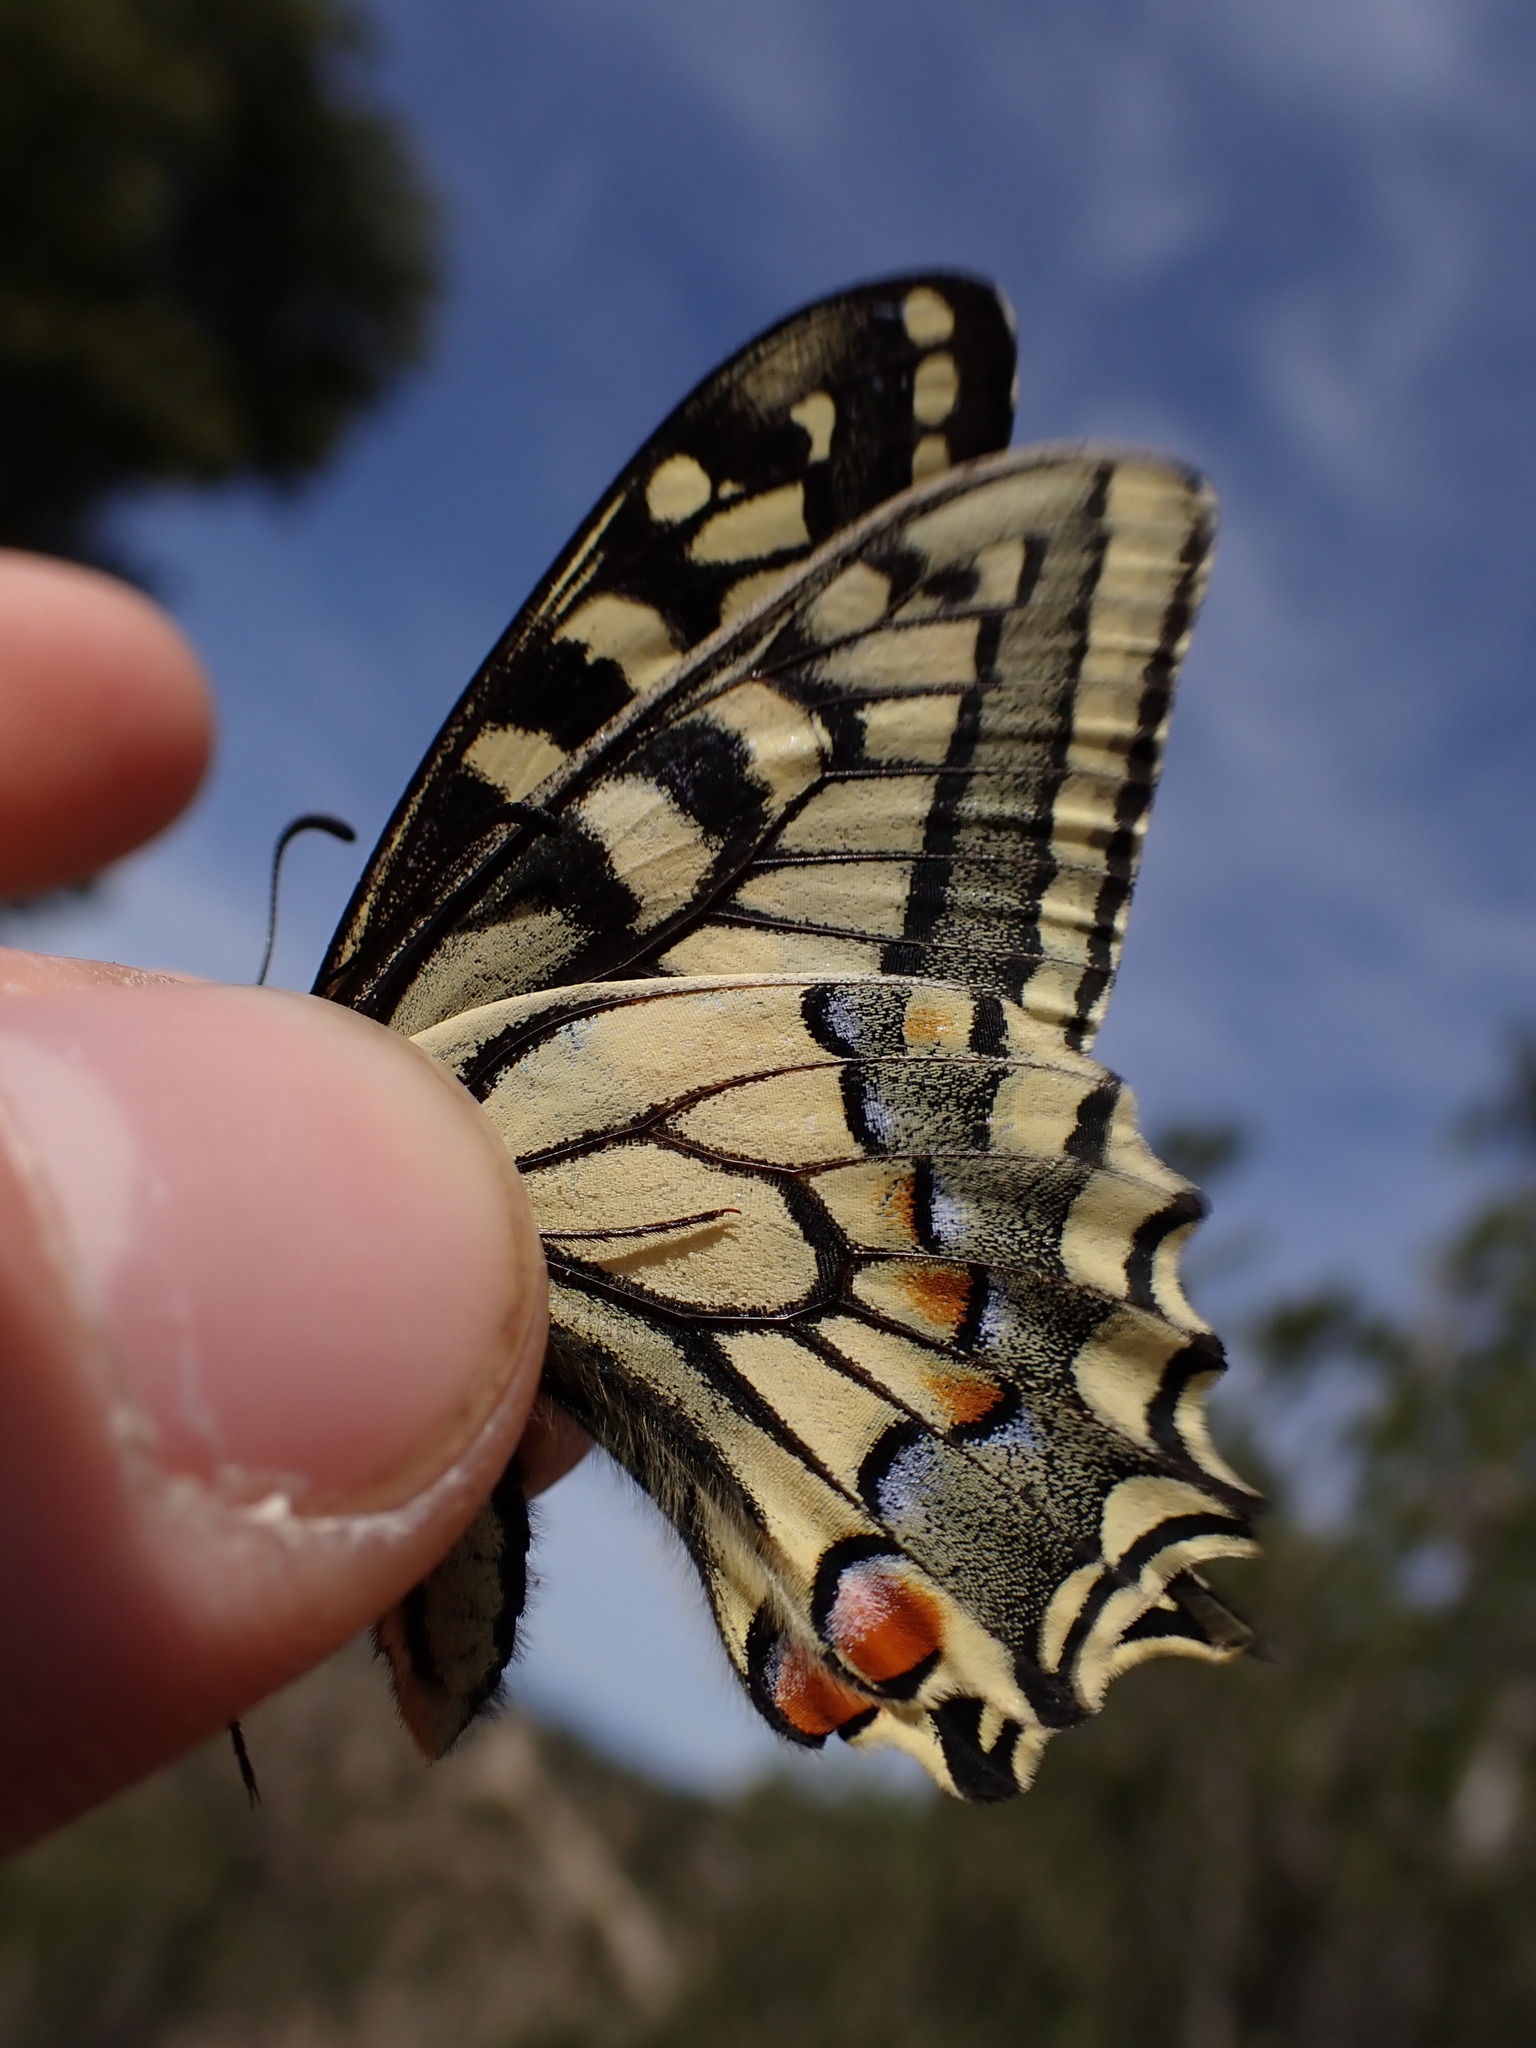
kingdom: Animalia
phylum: Arthropoda
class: Insecta
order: Lepidoptera
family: Papilionidae
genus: Papilio
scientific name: Papilio machaon
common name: Swallowtail
